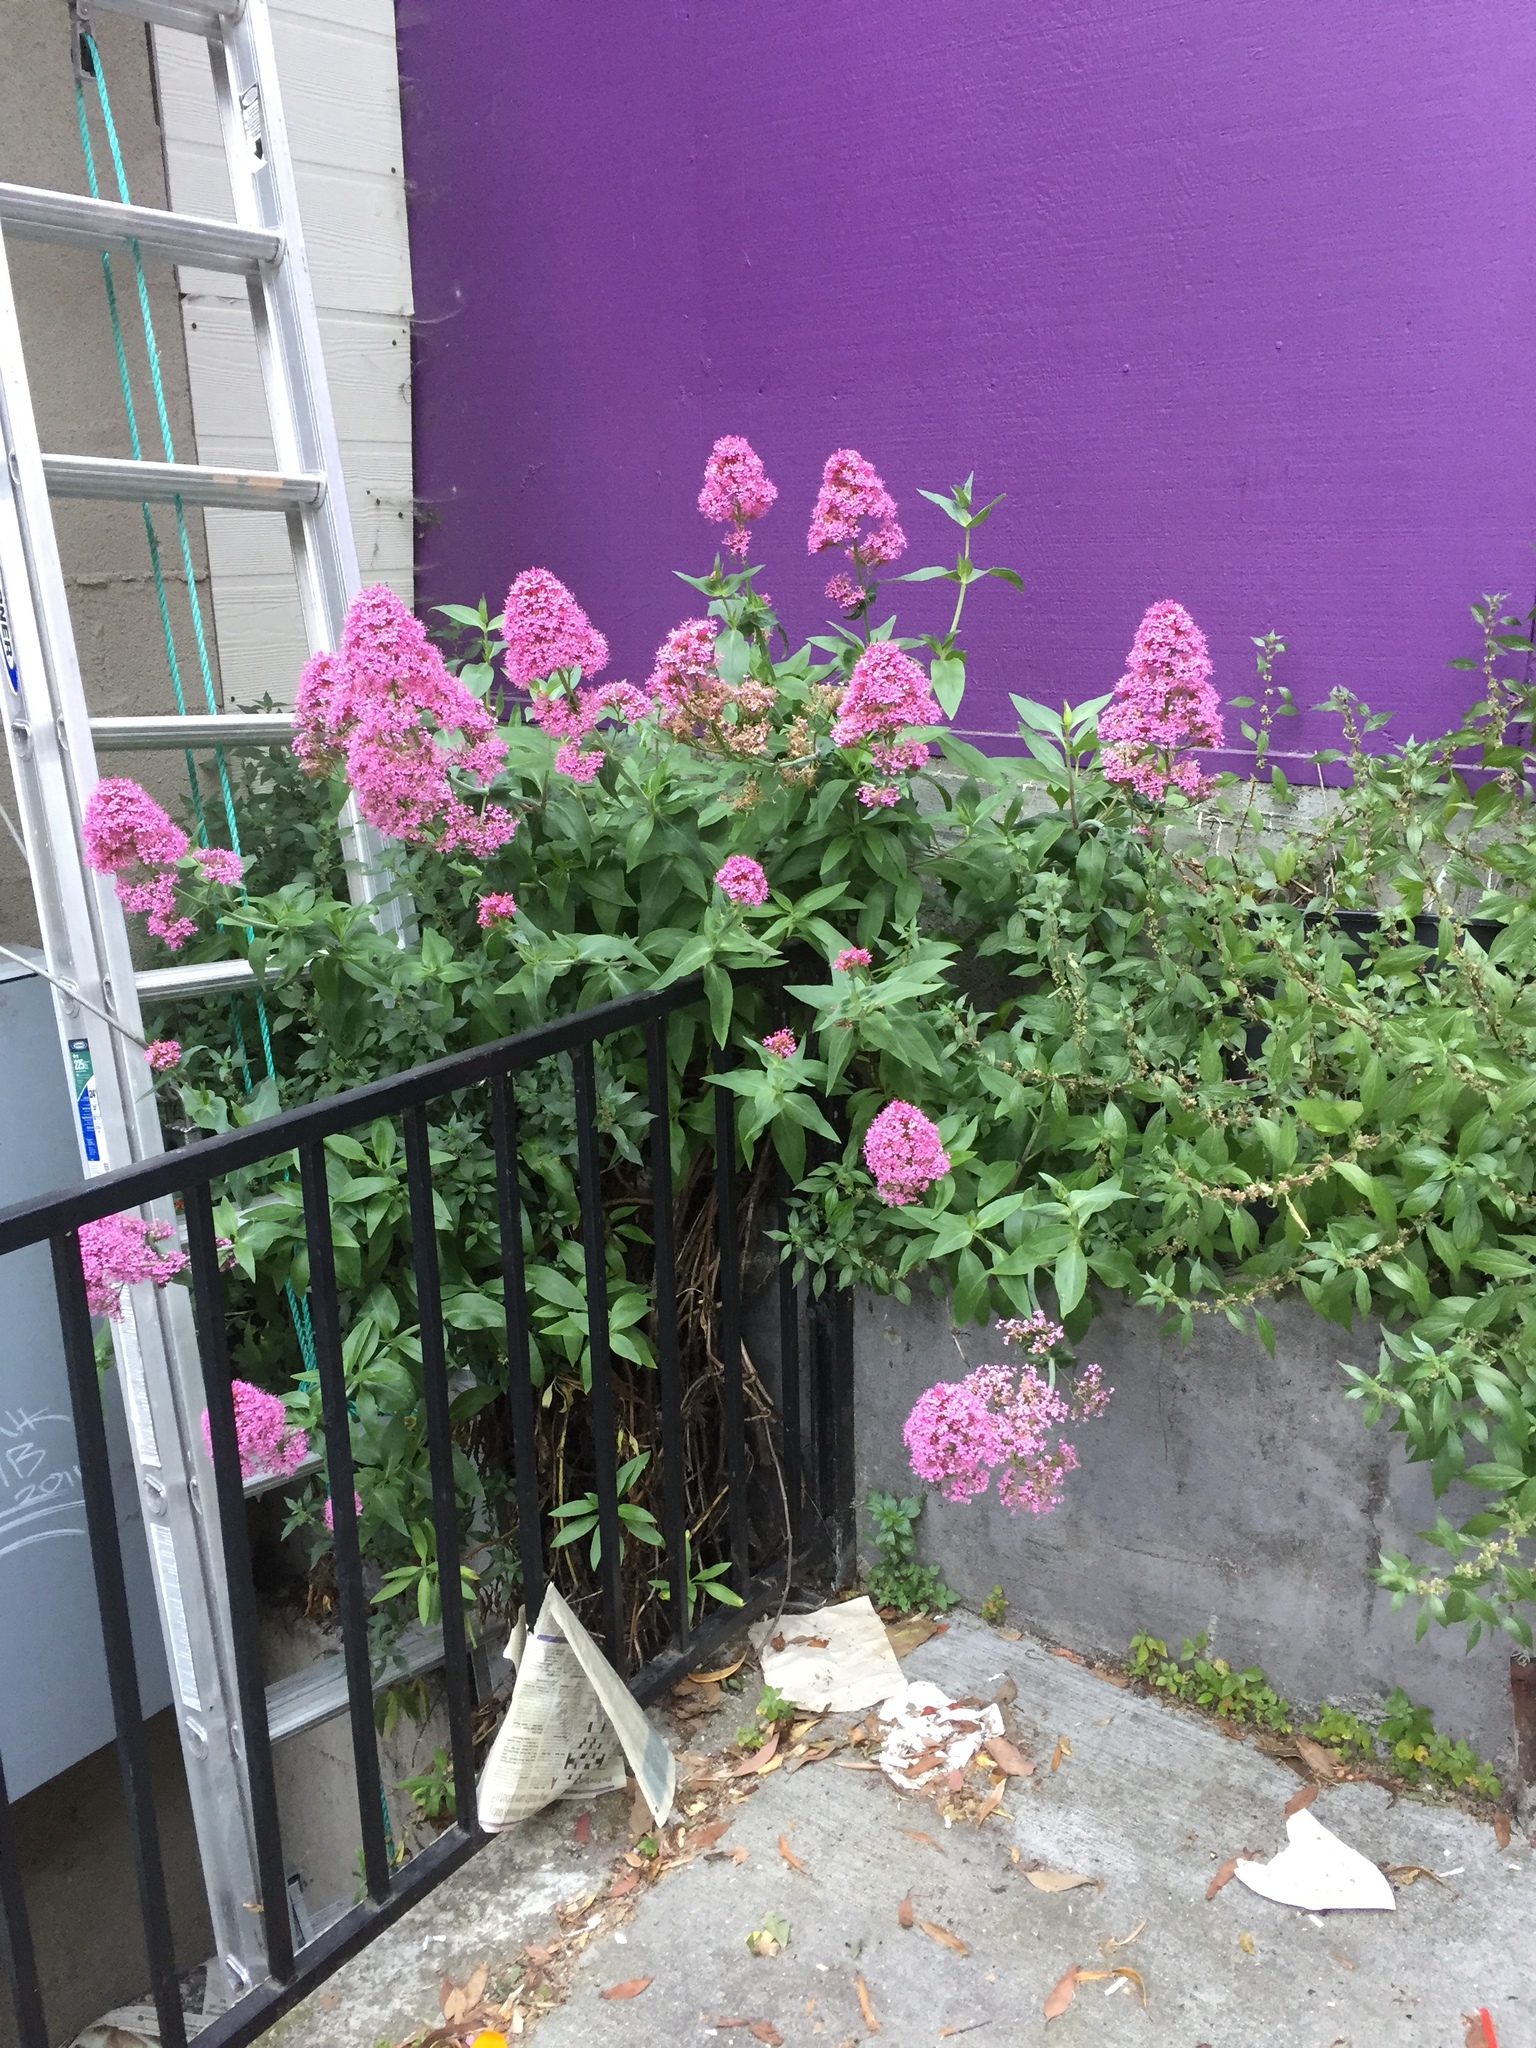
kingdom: Plantae
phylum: Tracheophyta
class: Magnoliopsida
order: Dipsacales
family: Caprifoliaceae
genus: Centranthus
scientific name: Centranthus ruber
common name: Red valerian
